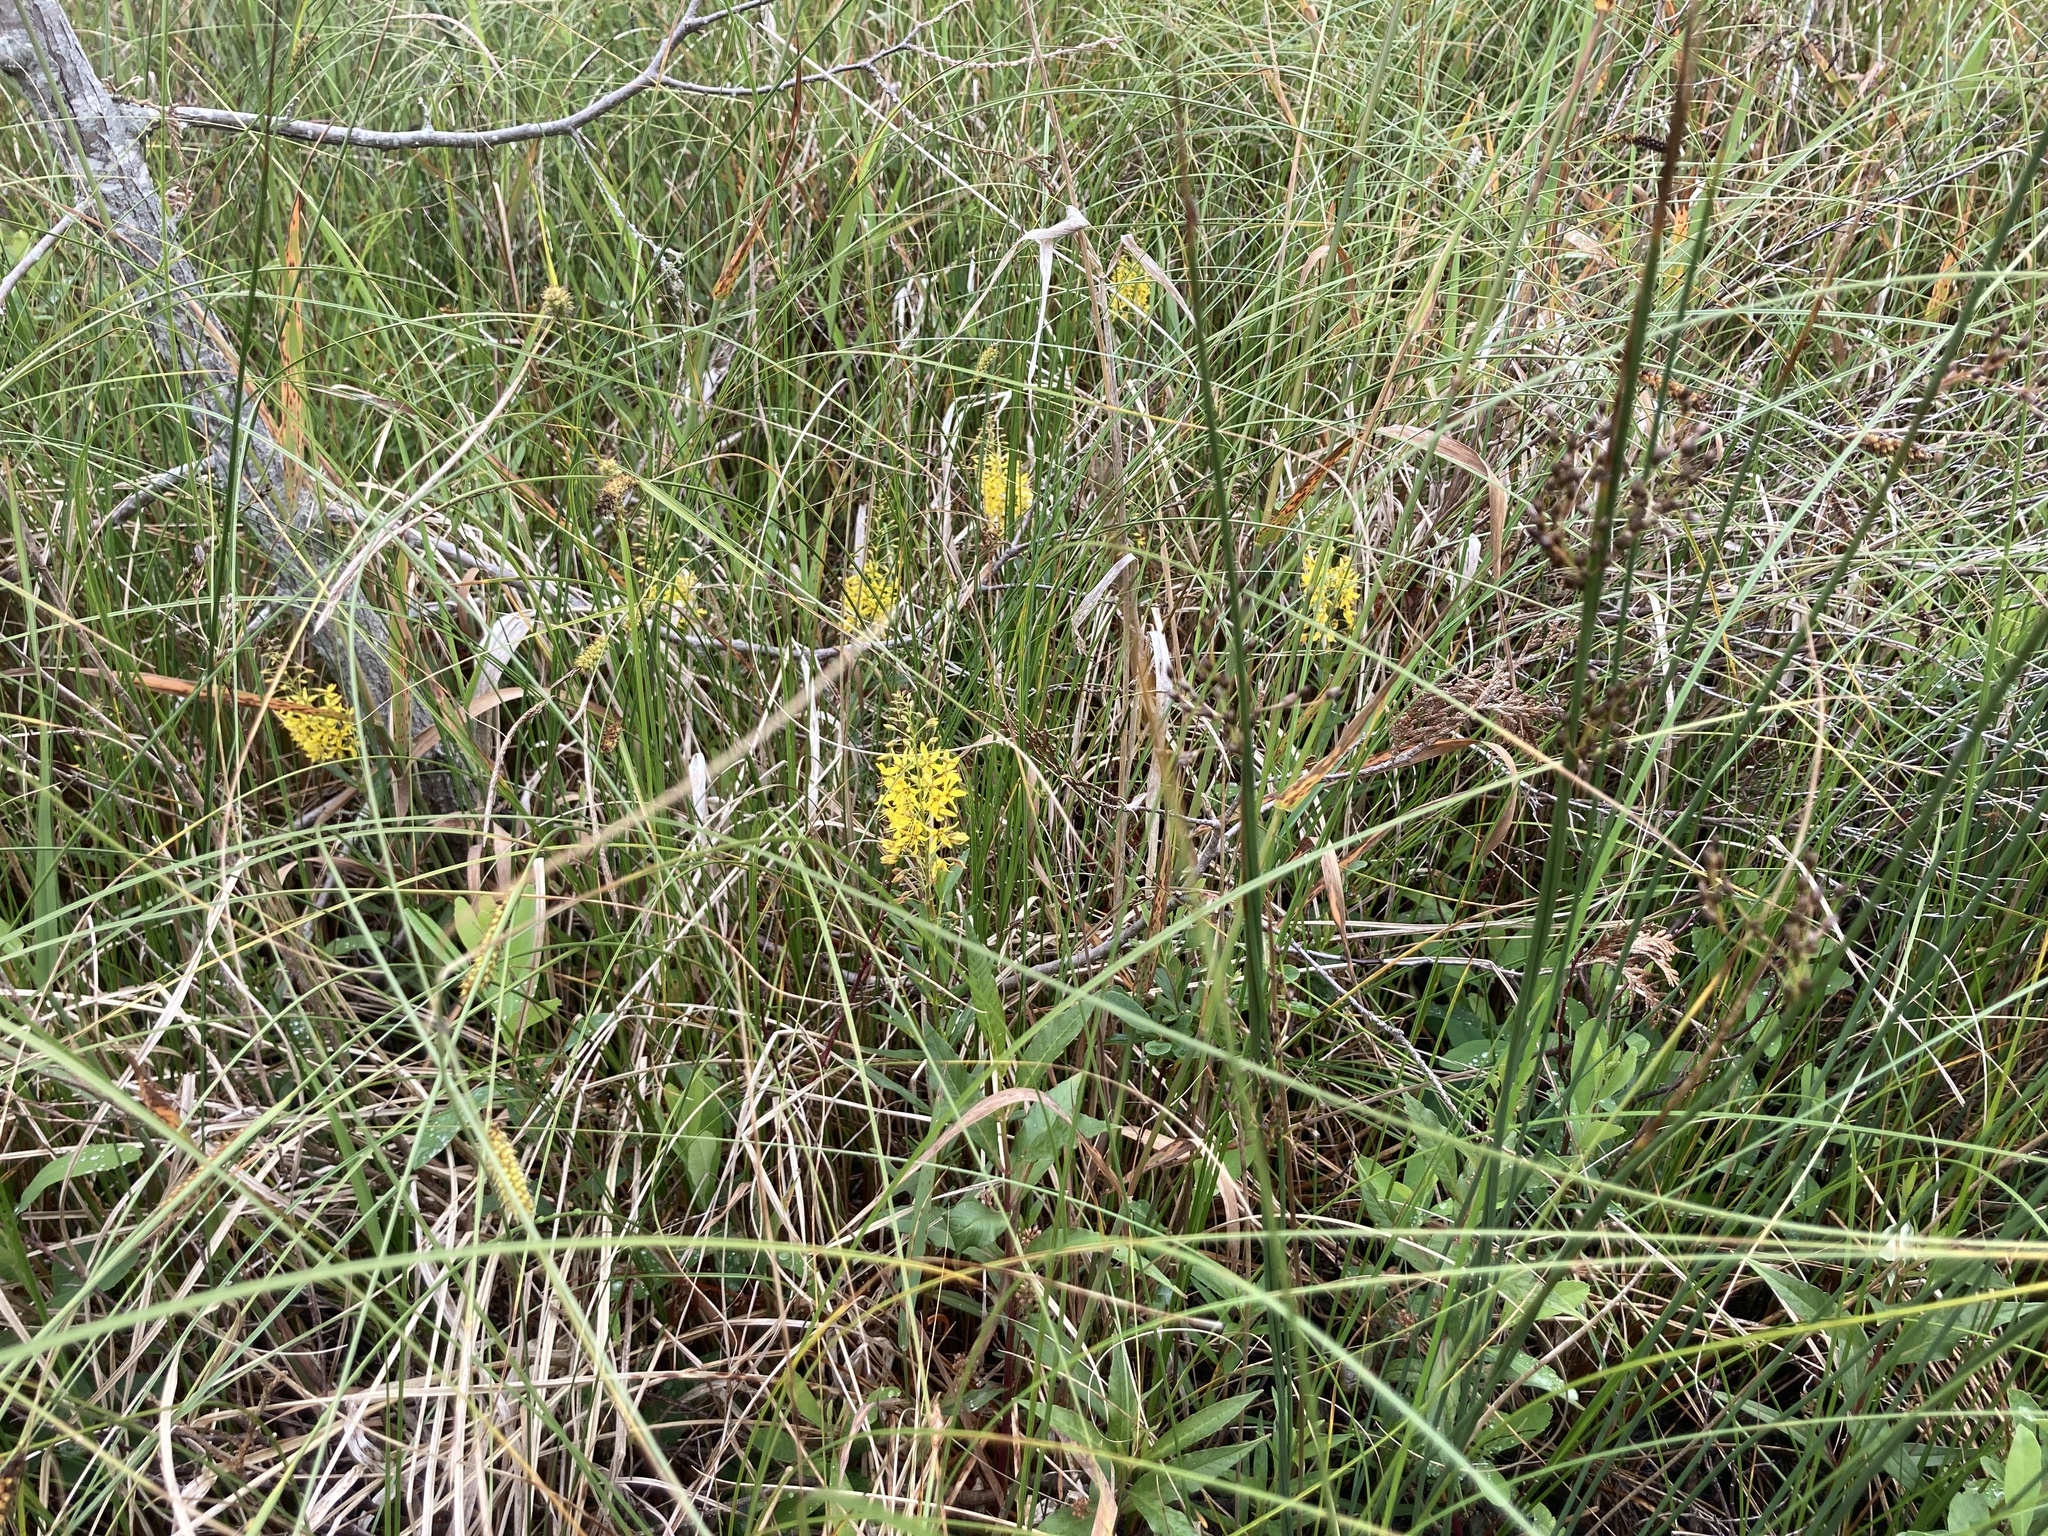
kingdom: Plantae
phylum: Tracheophyta
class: Magnoliopsida
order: Ericales
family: Primulaceae
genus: Lysimachia
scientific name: Lysimachia terrestris
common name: Lake loosestrife
